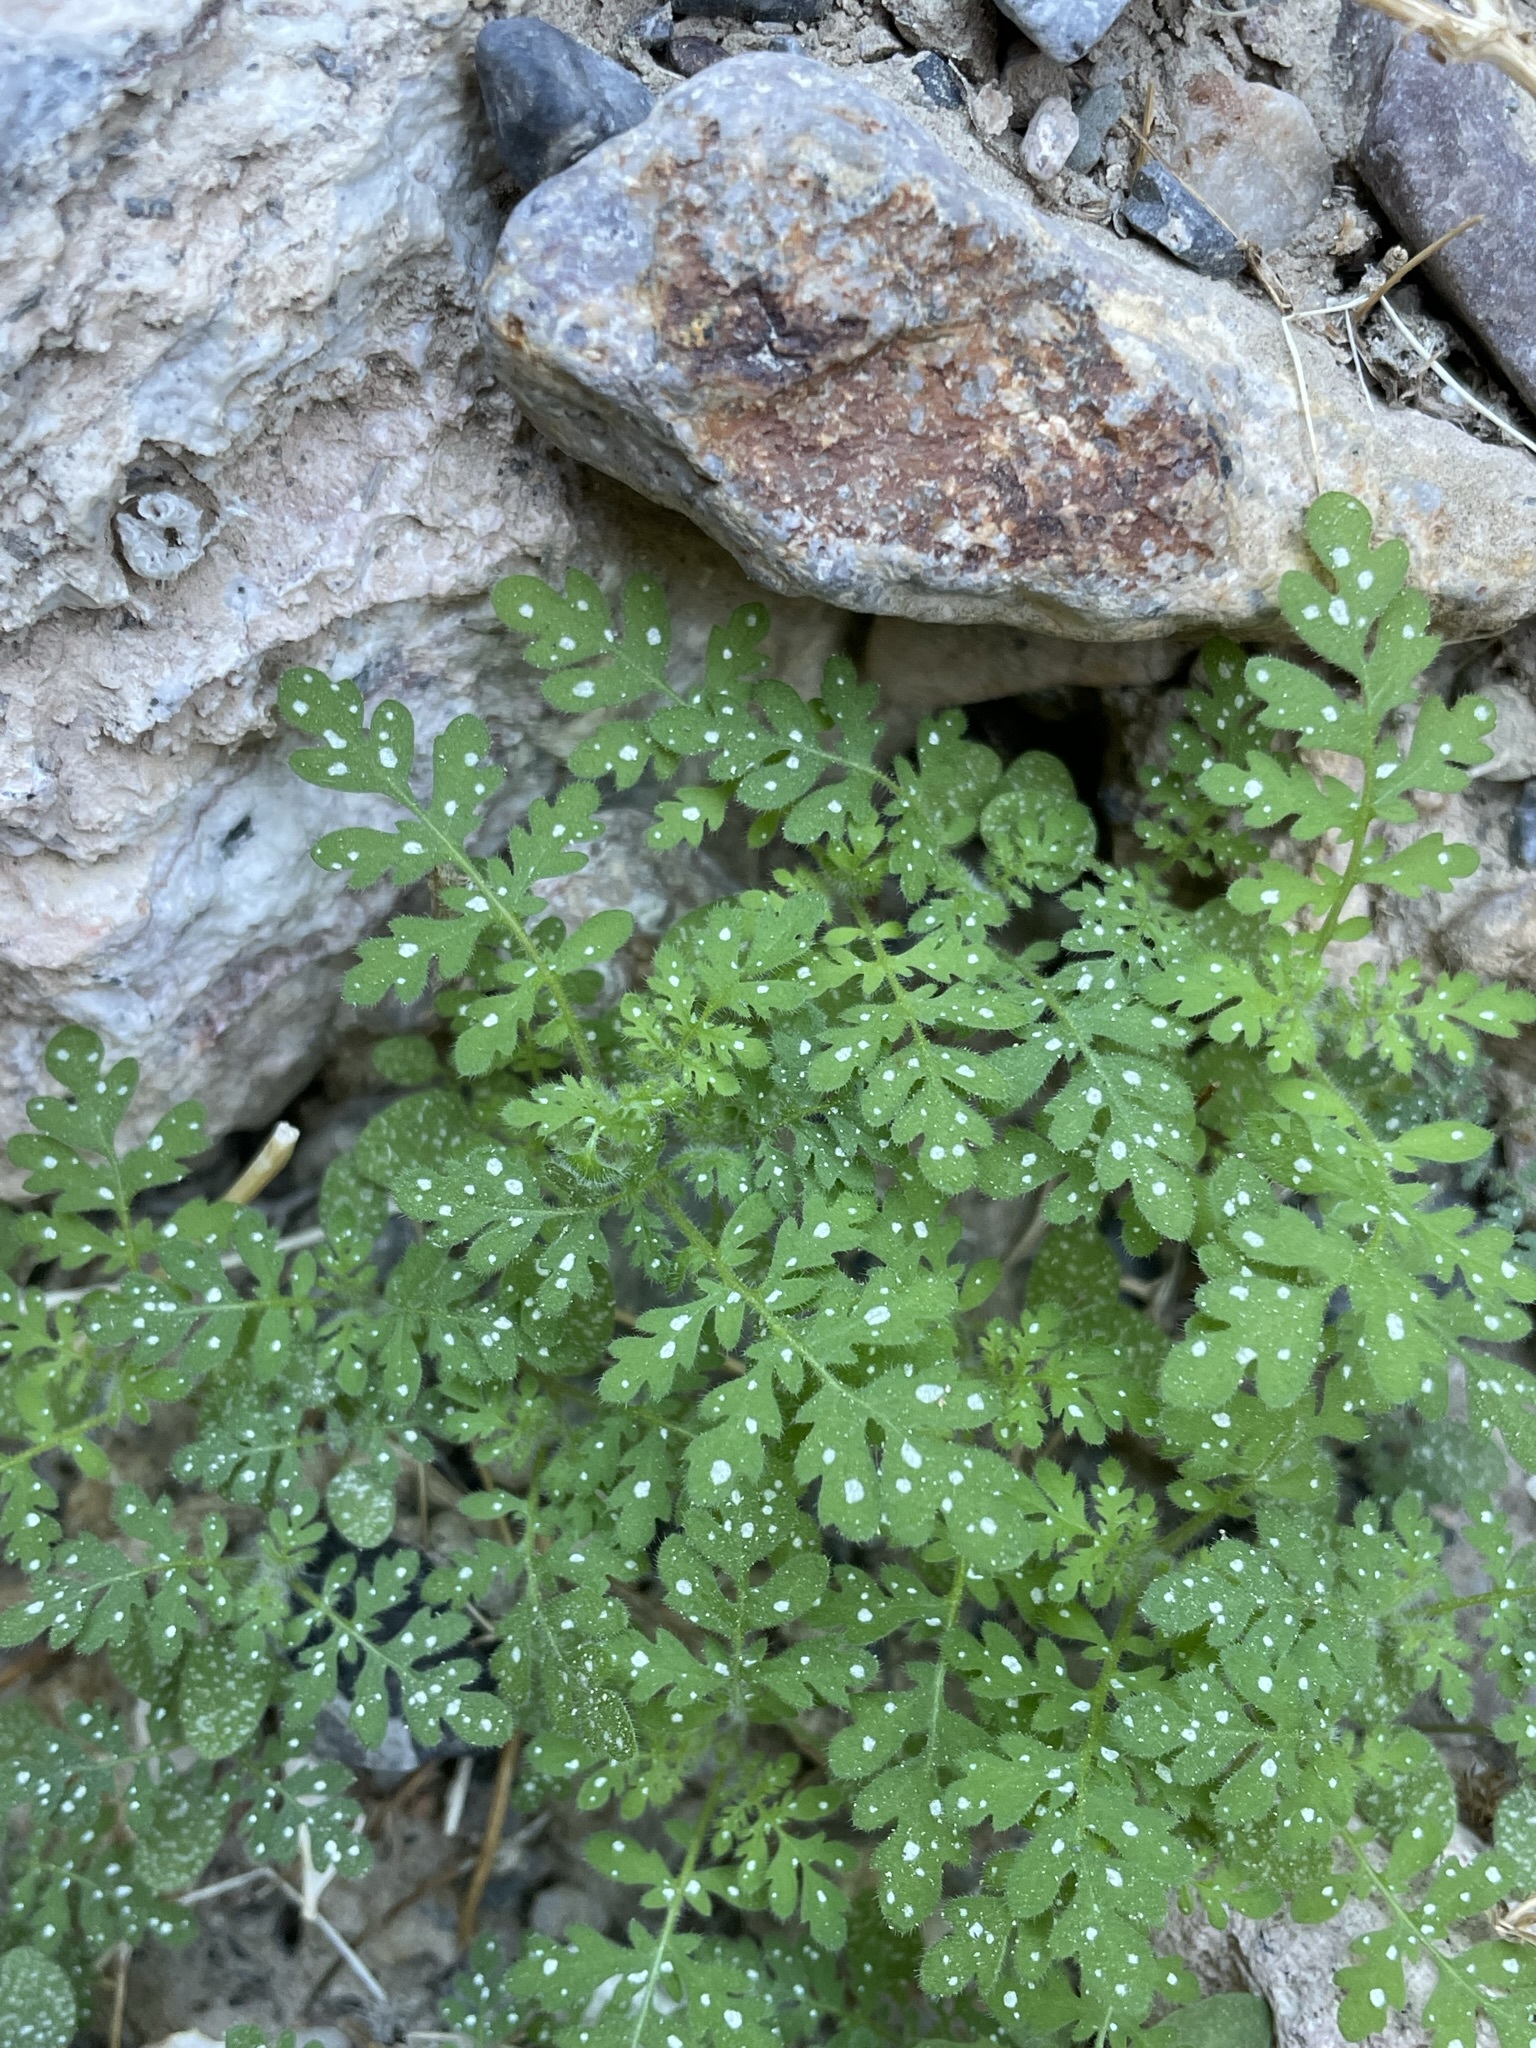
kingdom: Plantae
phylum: Tracheophyta
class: Magnoliopsida
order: Boraginales
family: Hydrophyllaceae
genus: Eucrypta
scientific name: Eucrypta chrysanthemifolia
